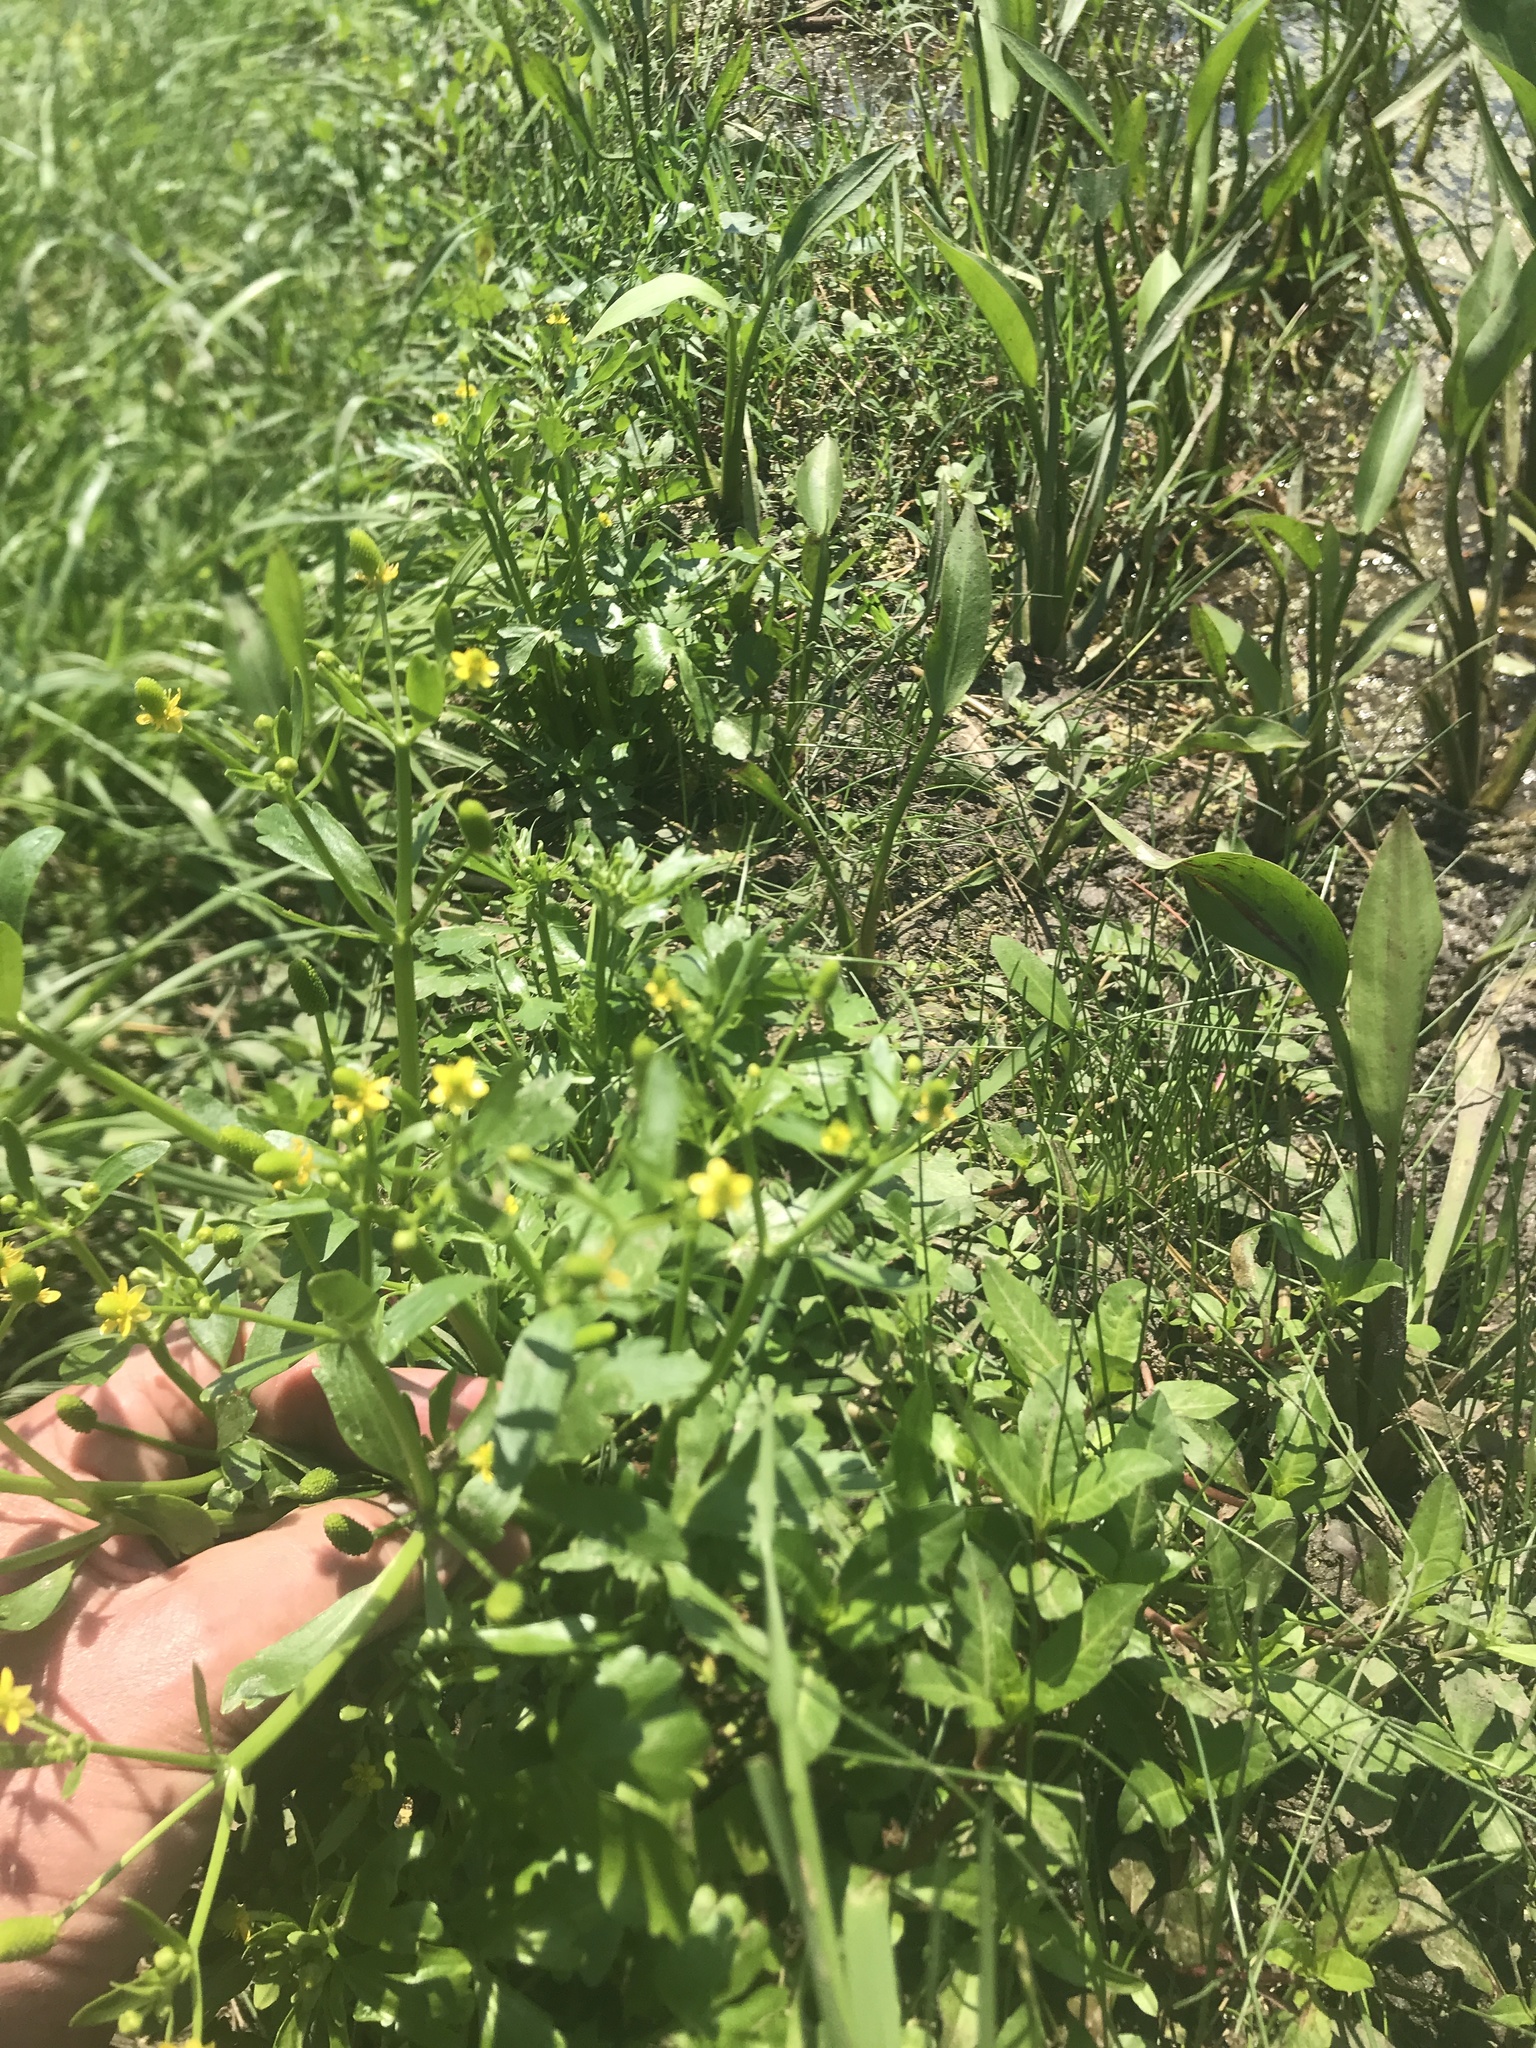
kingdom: Plantae
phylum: Tracheophyta
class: Magnoliopsida
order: Ranunculales
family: Ranunculaceae
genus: Ranunculus
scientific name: Ranunculus sceleratus
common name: Celery-leaved buttercup
